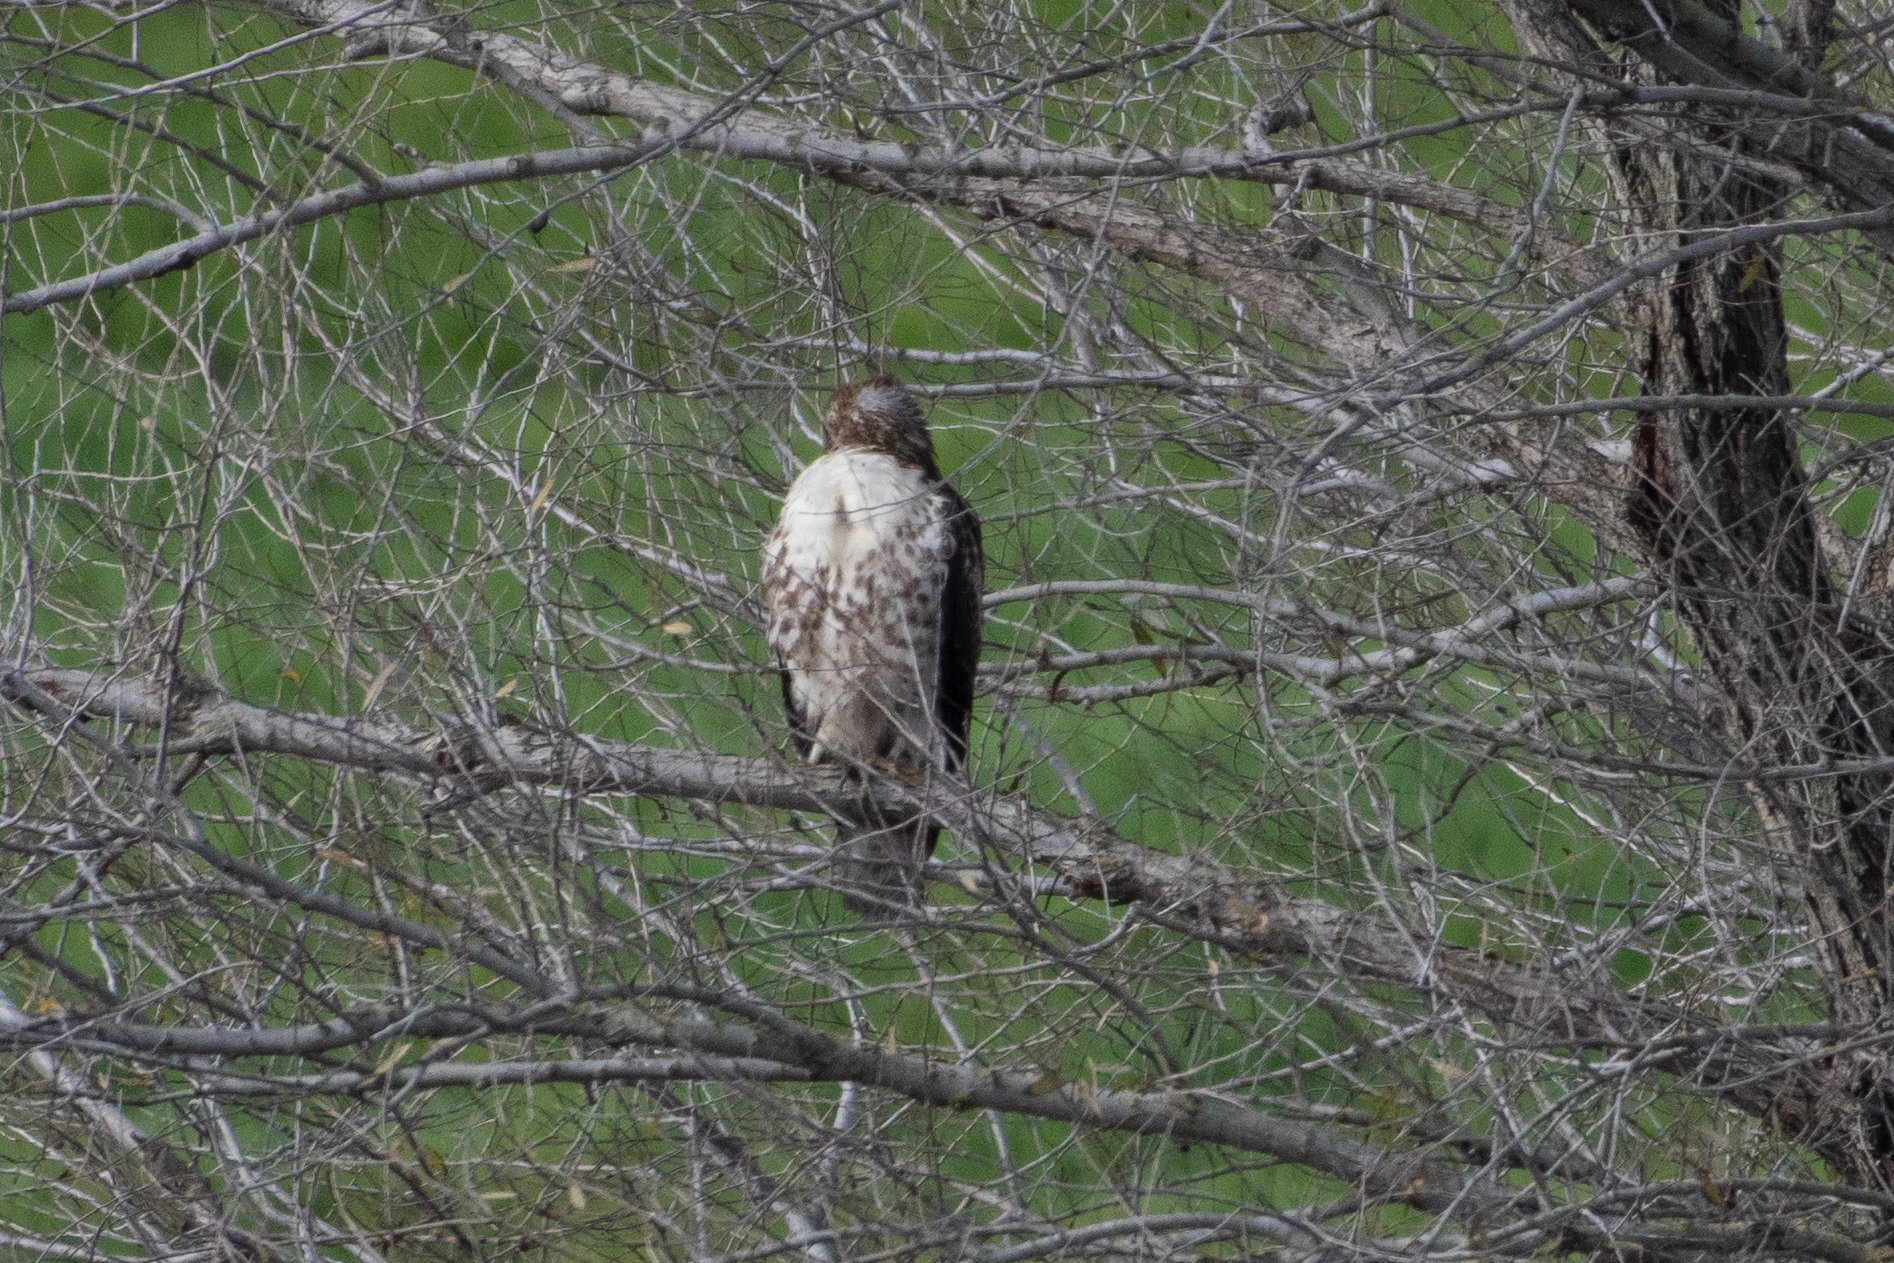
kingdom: Animalia
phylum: Chordata
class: Aves
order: Accipitriformes
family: Accipitridae
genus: Buteo
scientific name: Buteo jamaicensis
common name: Red-tailed hawk
